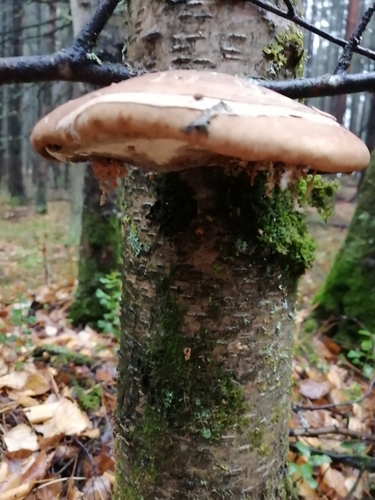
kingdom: Fungi
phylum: Basidiomycota
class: Agaricomycetes
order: Polyporales
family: Fomitopsidaceae
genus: Fomitopsis
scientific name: Fomitopsis betulina
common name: Birch polypore
